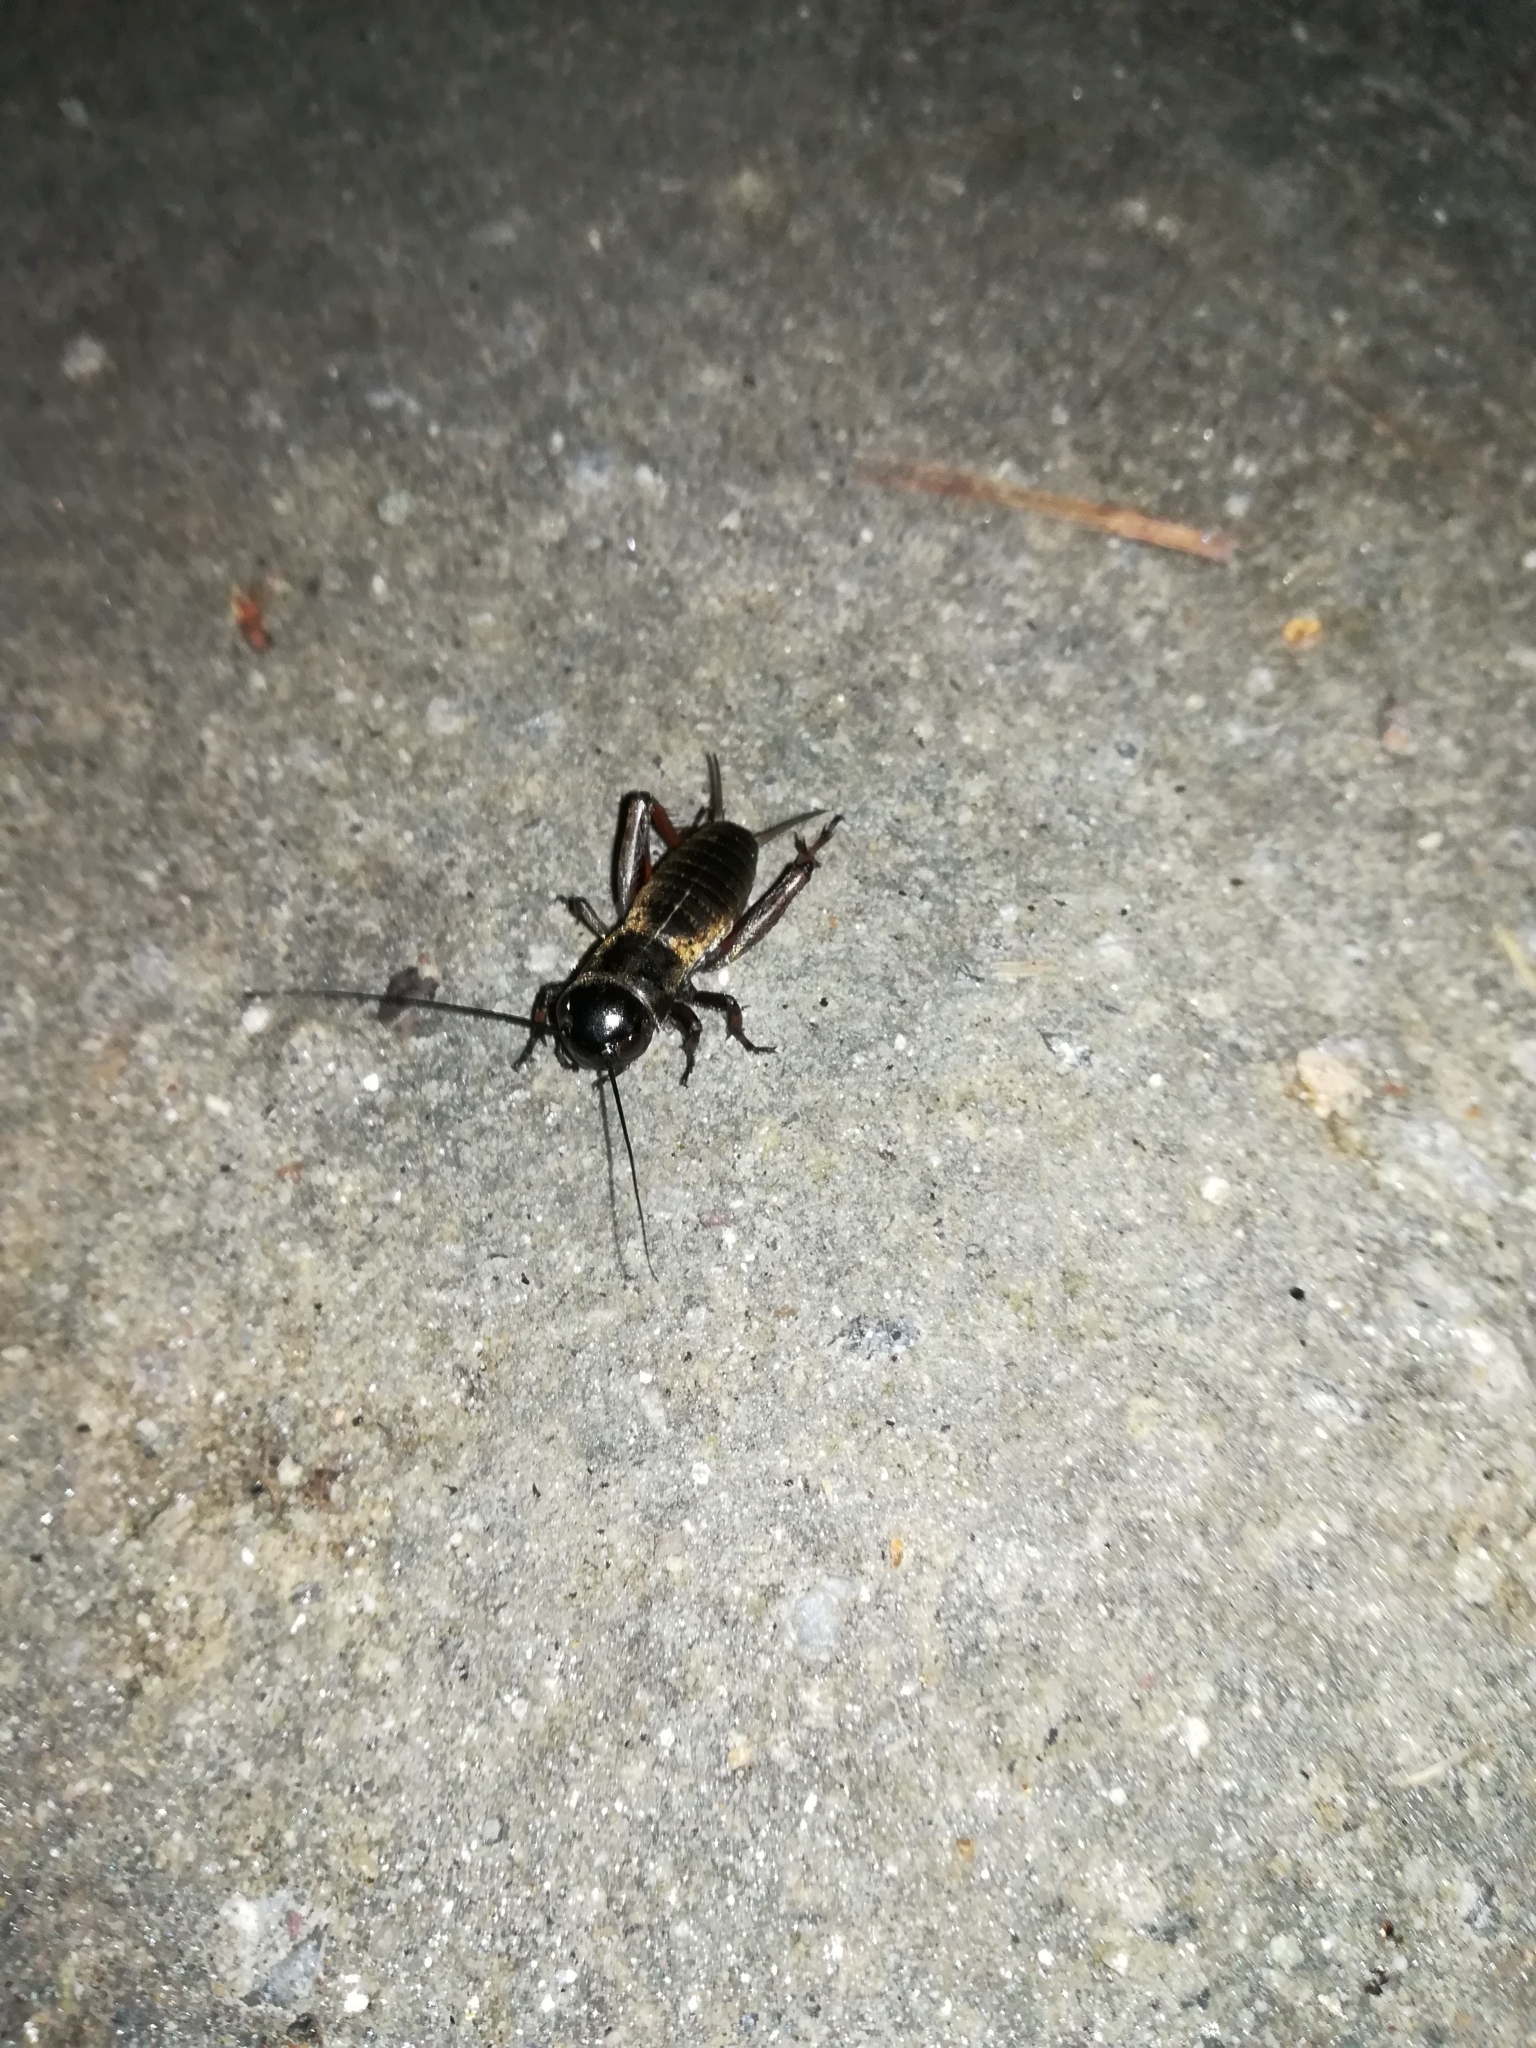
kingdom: Animalia
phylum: Arthropoda
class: Insecta
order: Orthoptera
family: Gryllidae
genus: Gryllus
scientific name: Gryllus campestris
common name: Field cricket
